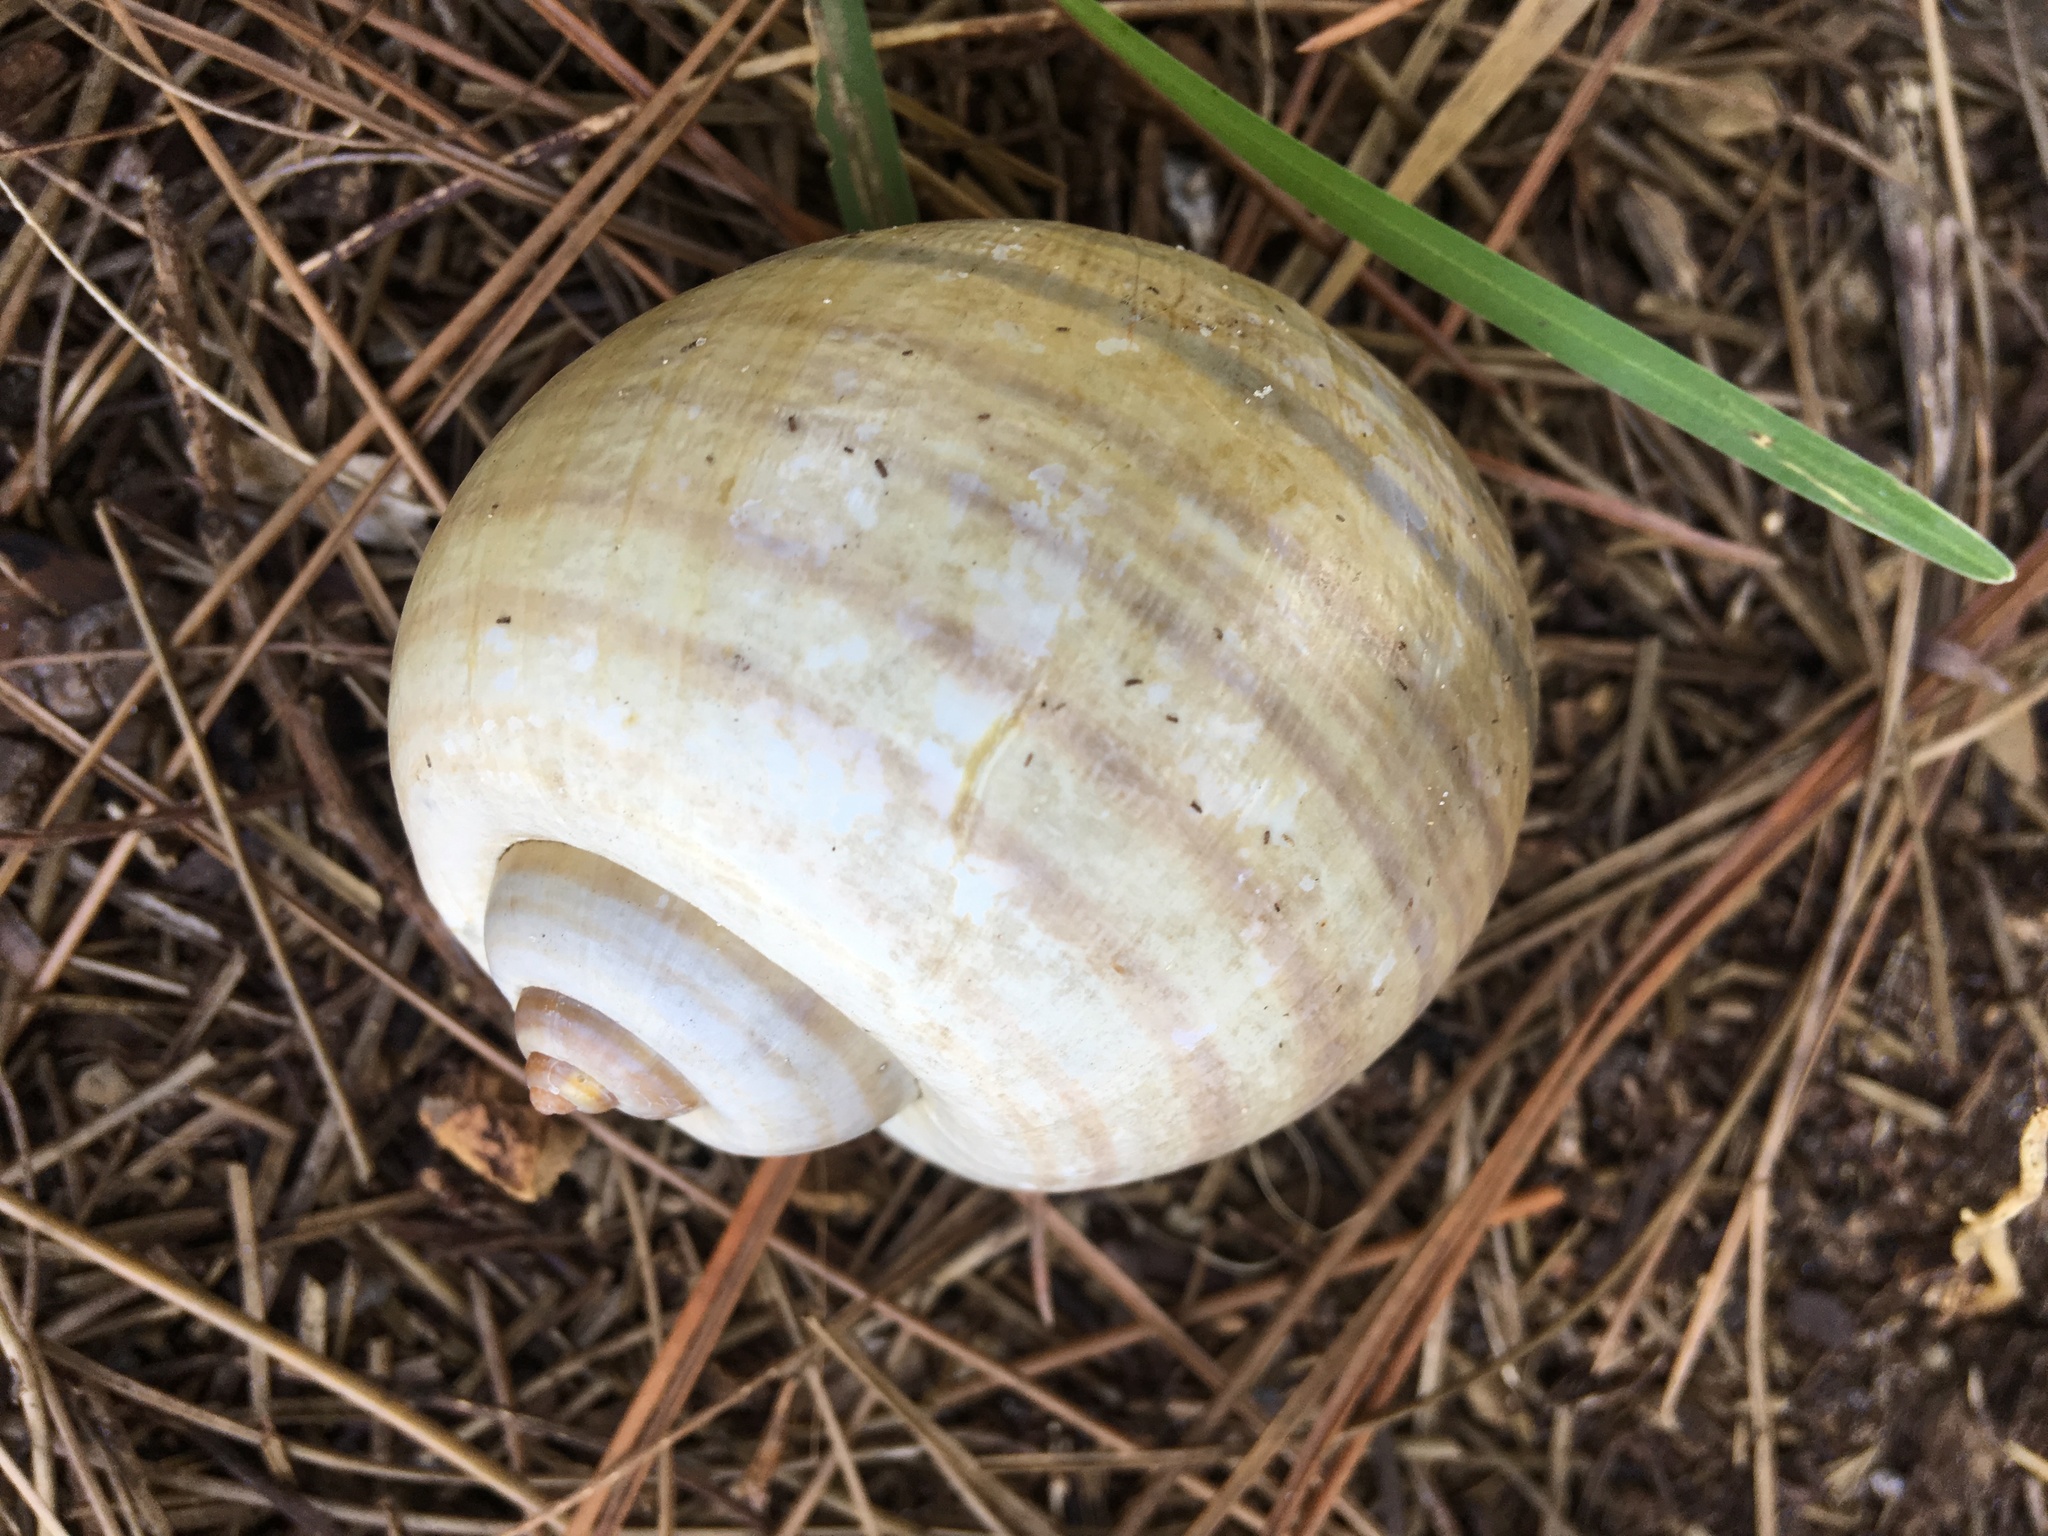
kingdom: Animalia
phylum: Mollusca
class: Gastropoda
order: Architaenioglossa
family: Ampullariidae
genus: Pomacea
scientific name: Pomacea canaliculata
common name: Channeled applesnail
